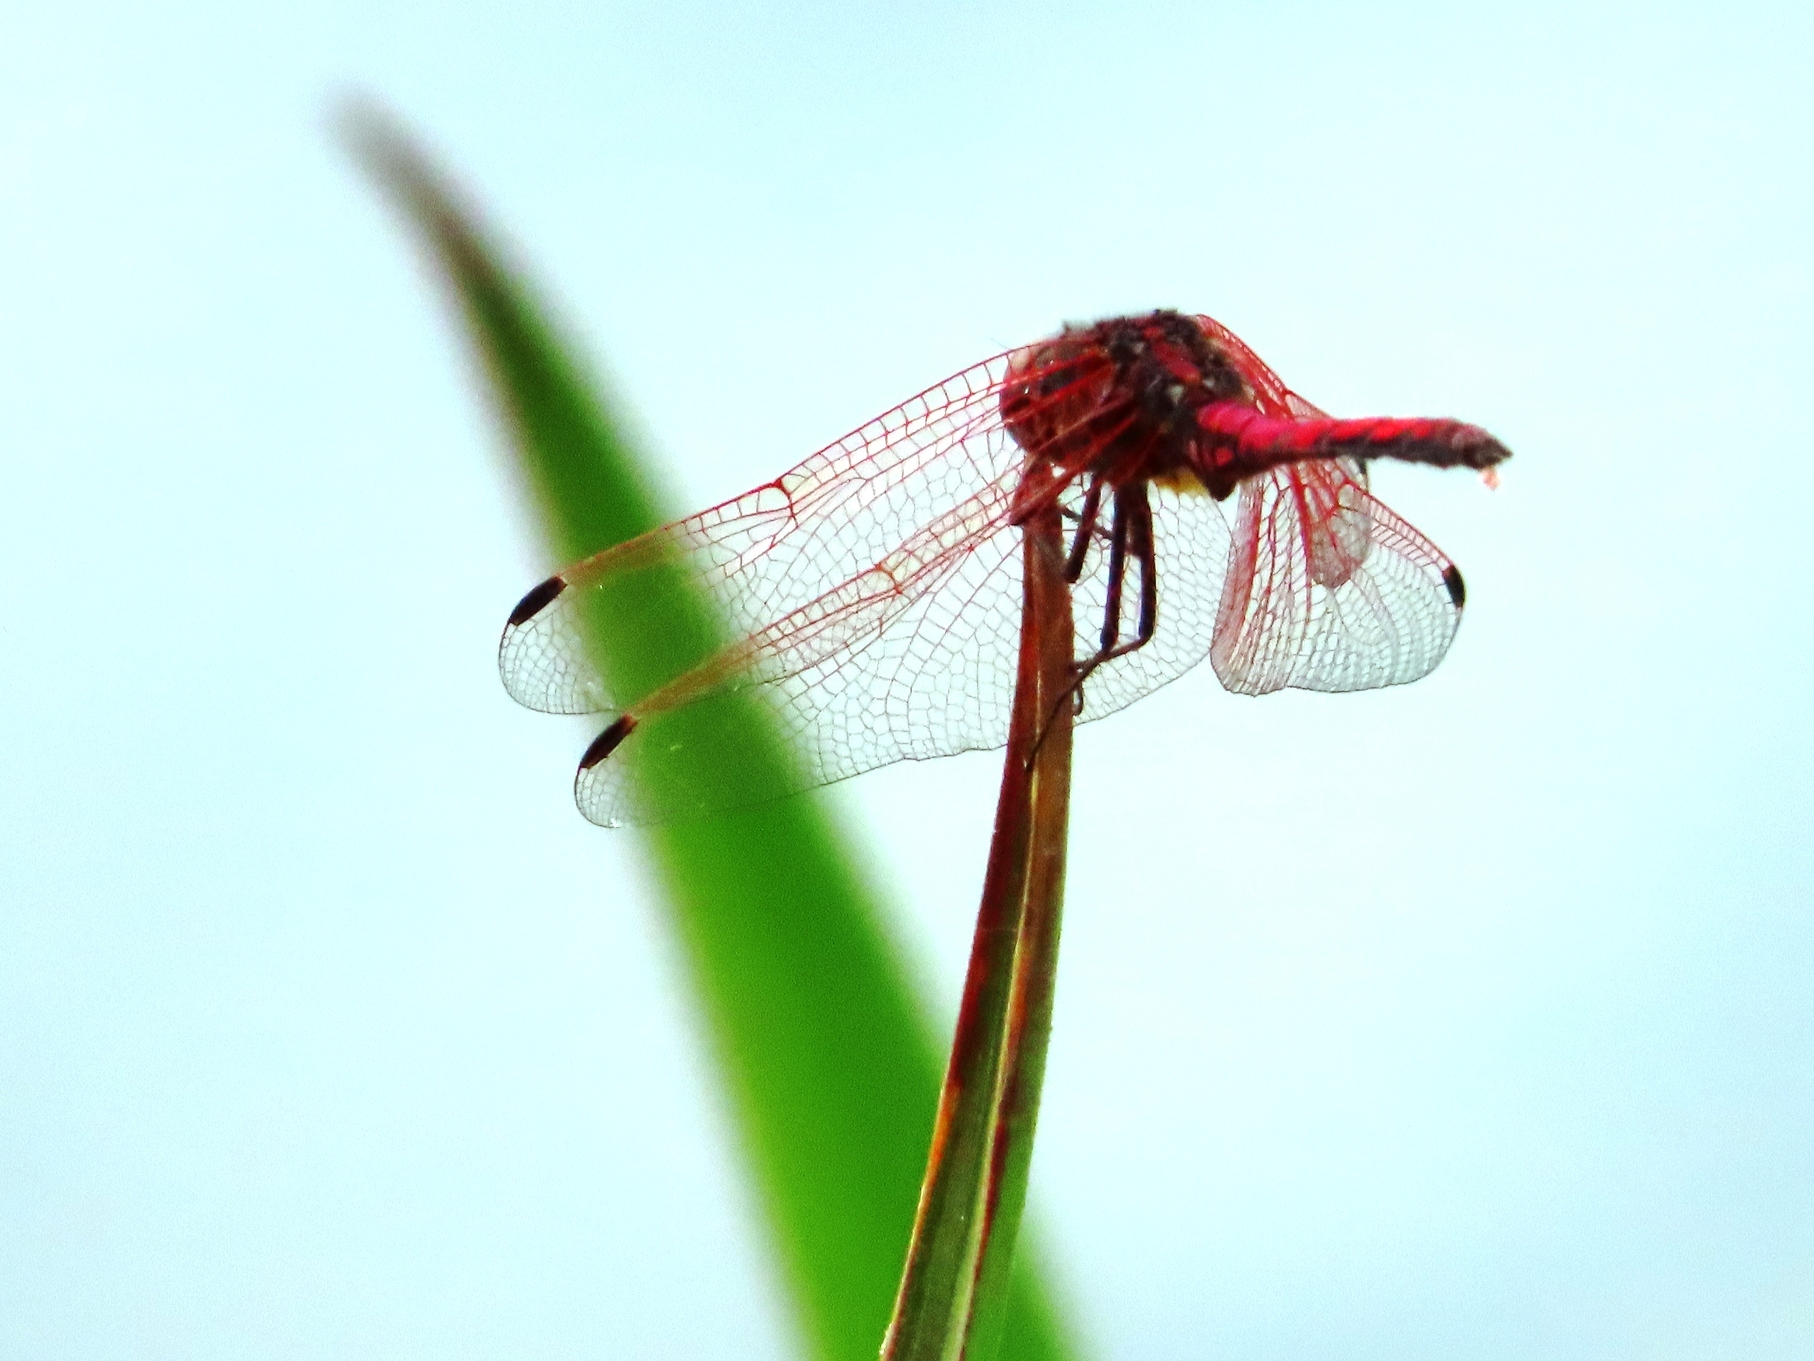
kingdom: Animalia
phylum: Arthropoda
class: Insecta
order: Odonata
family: Libellulidae
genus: Trithemis
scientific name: Trithemis arteriosa
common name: Red-veined dropwing
